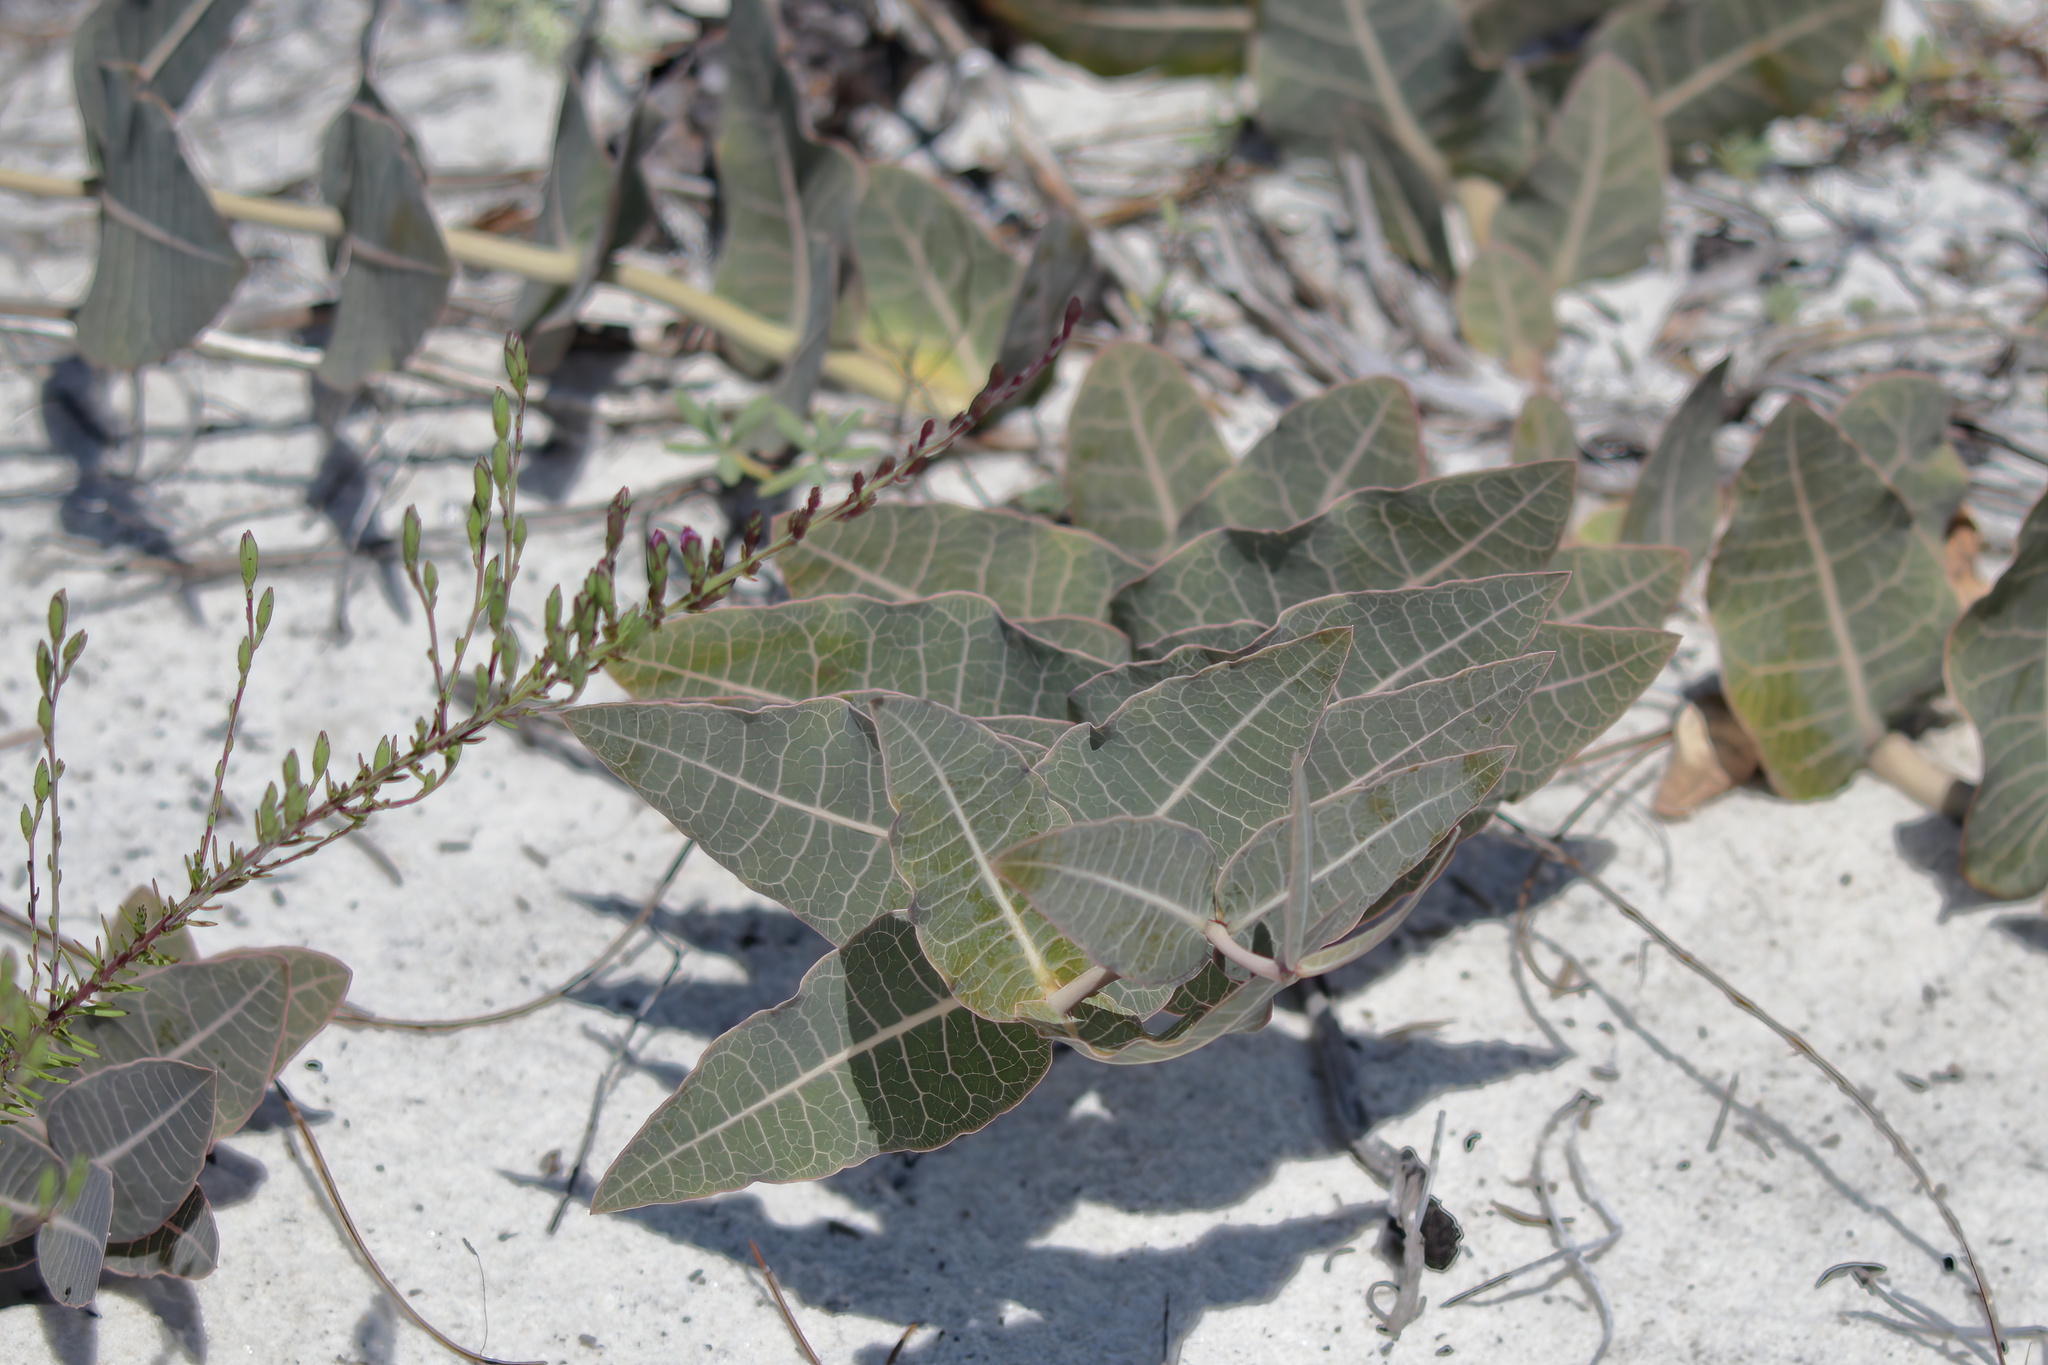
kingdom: Plantae
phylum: Tracheophyta
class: Magnoliopsida
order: Gentianales
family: Apocynaceae
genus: Asclepias
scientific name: Asclepias humistrata
